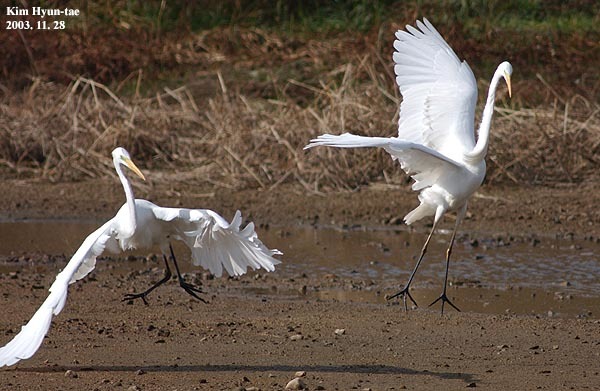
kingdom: Animalia
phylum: Chordata
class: Aves
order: Pelecaniformes
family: Ardeidae
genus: Ardea
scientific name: Ardea alba
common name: Great egret
